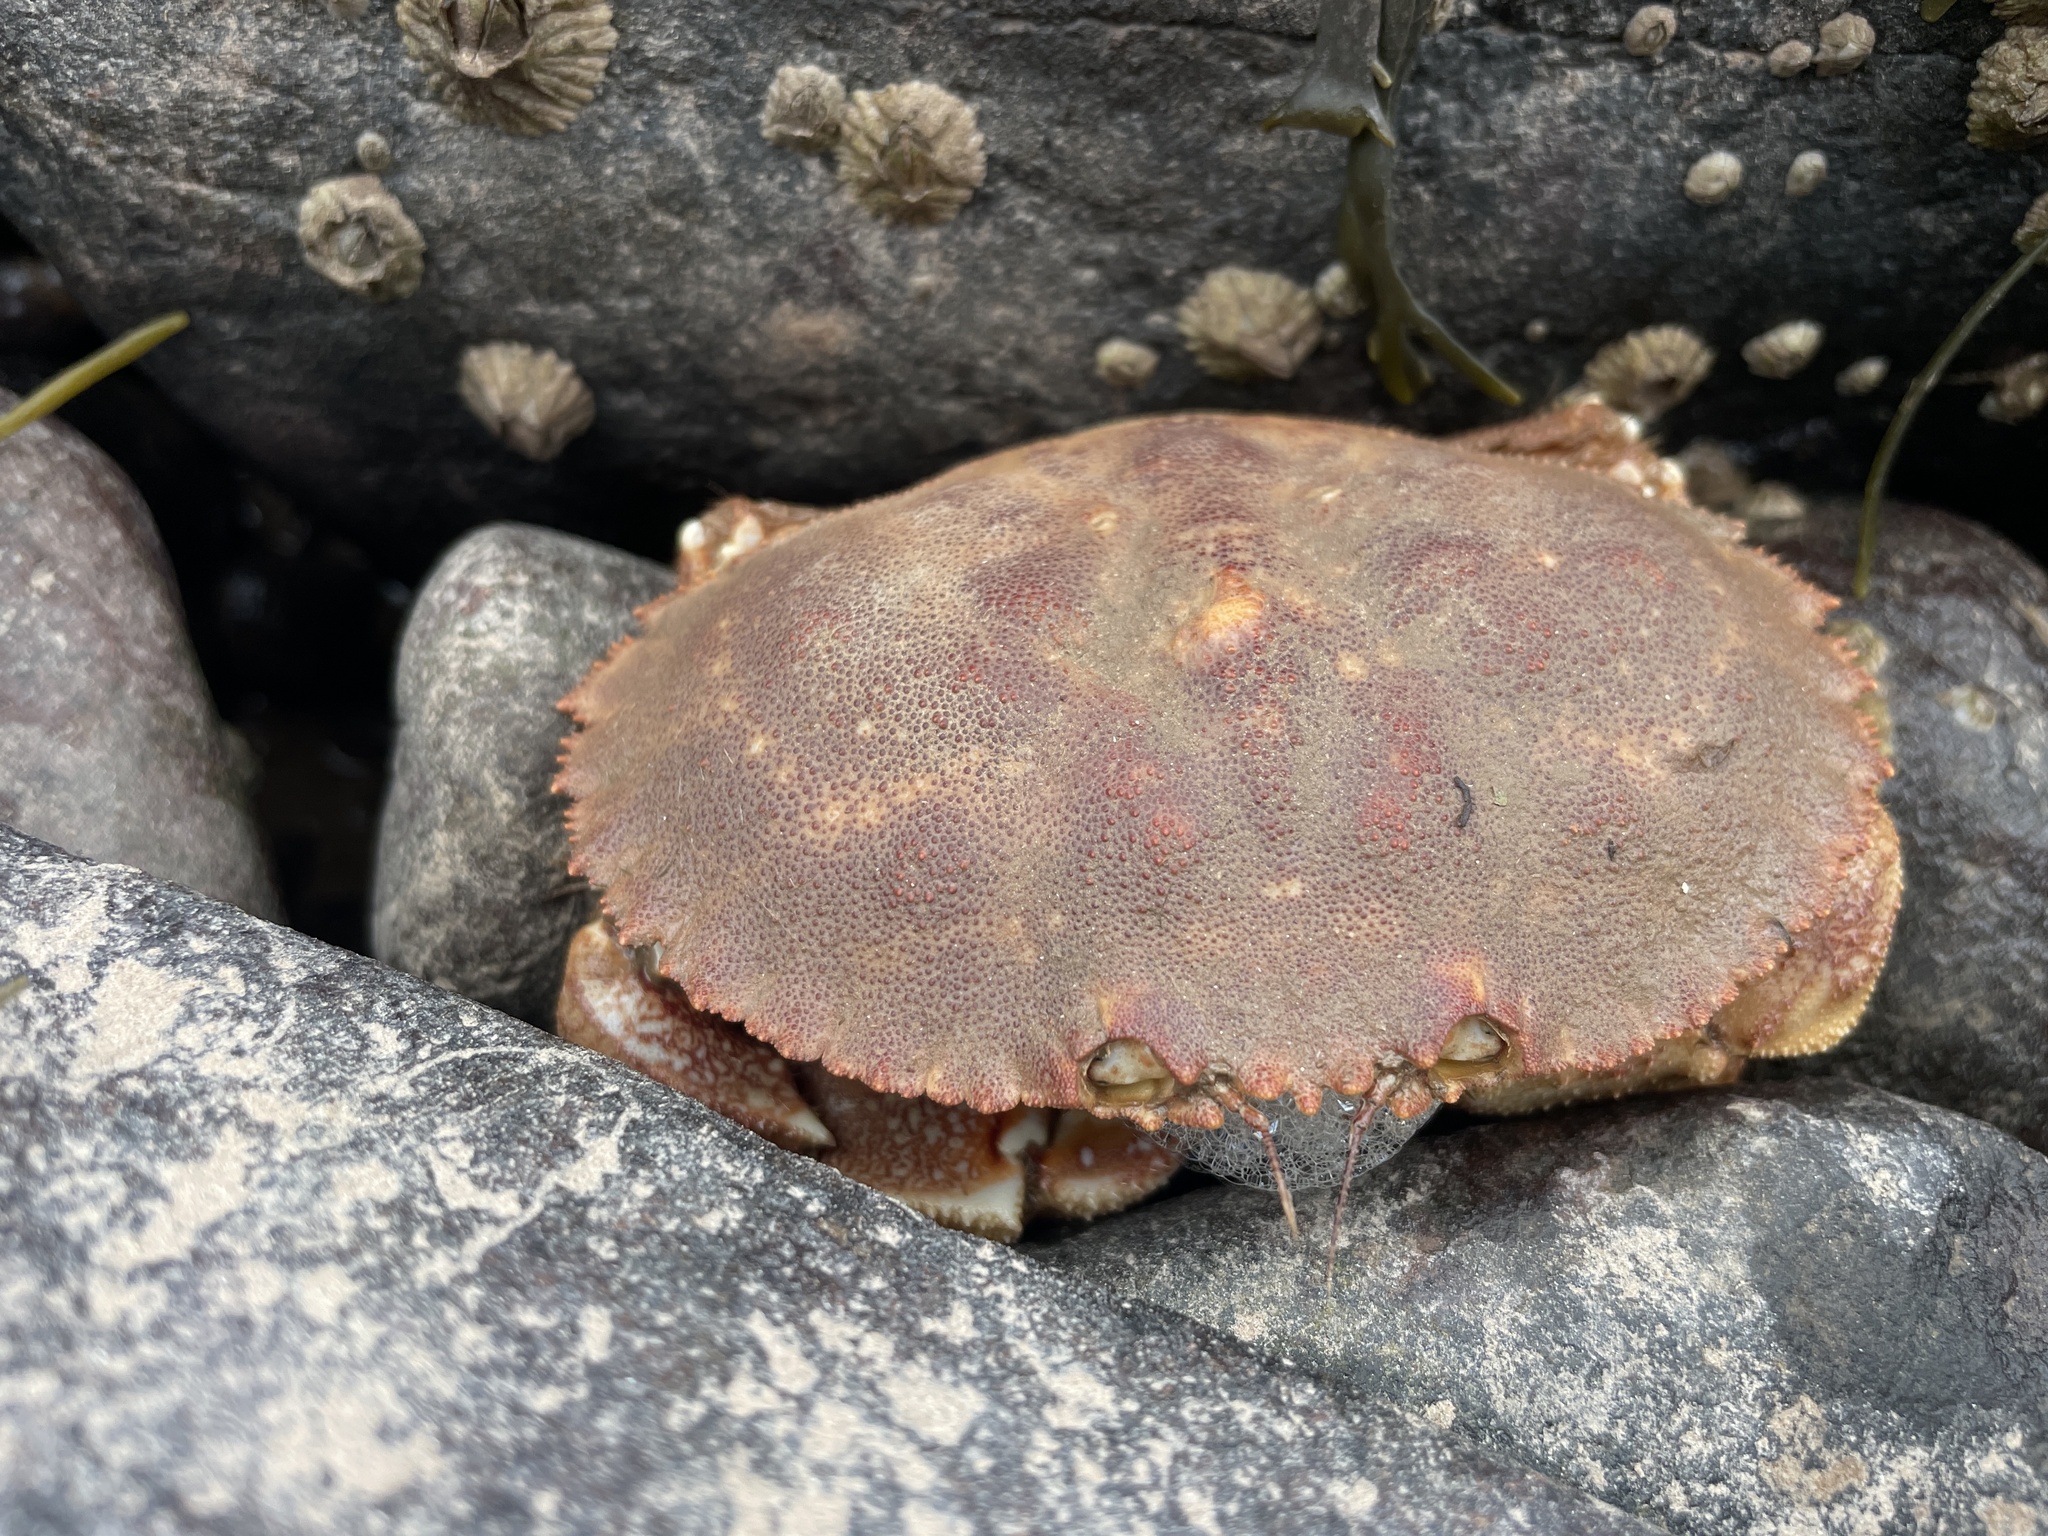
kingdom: Animalia
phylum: Arthropoda
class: Malacostraca
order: Decapoda
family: Cancridae
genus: Cancer
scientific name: Cancer borealis
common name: Jonah crab
